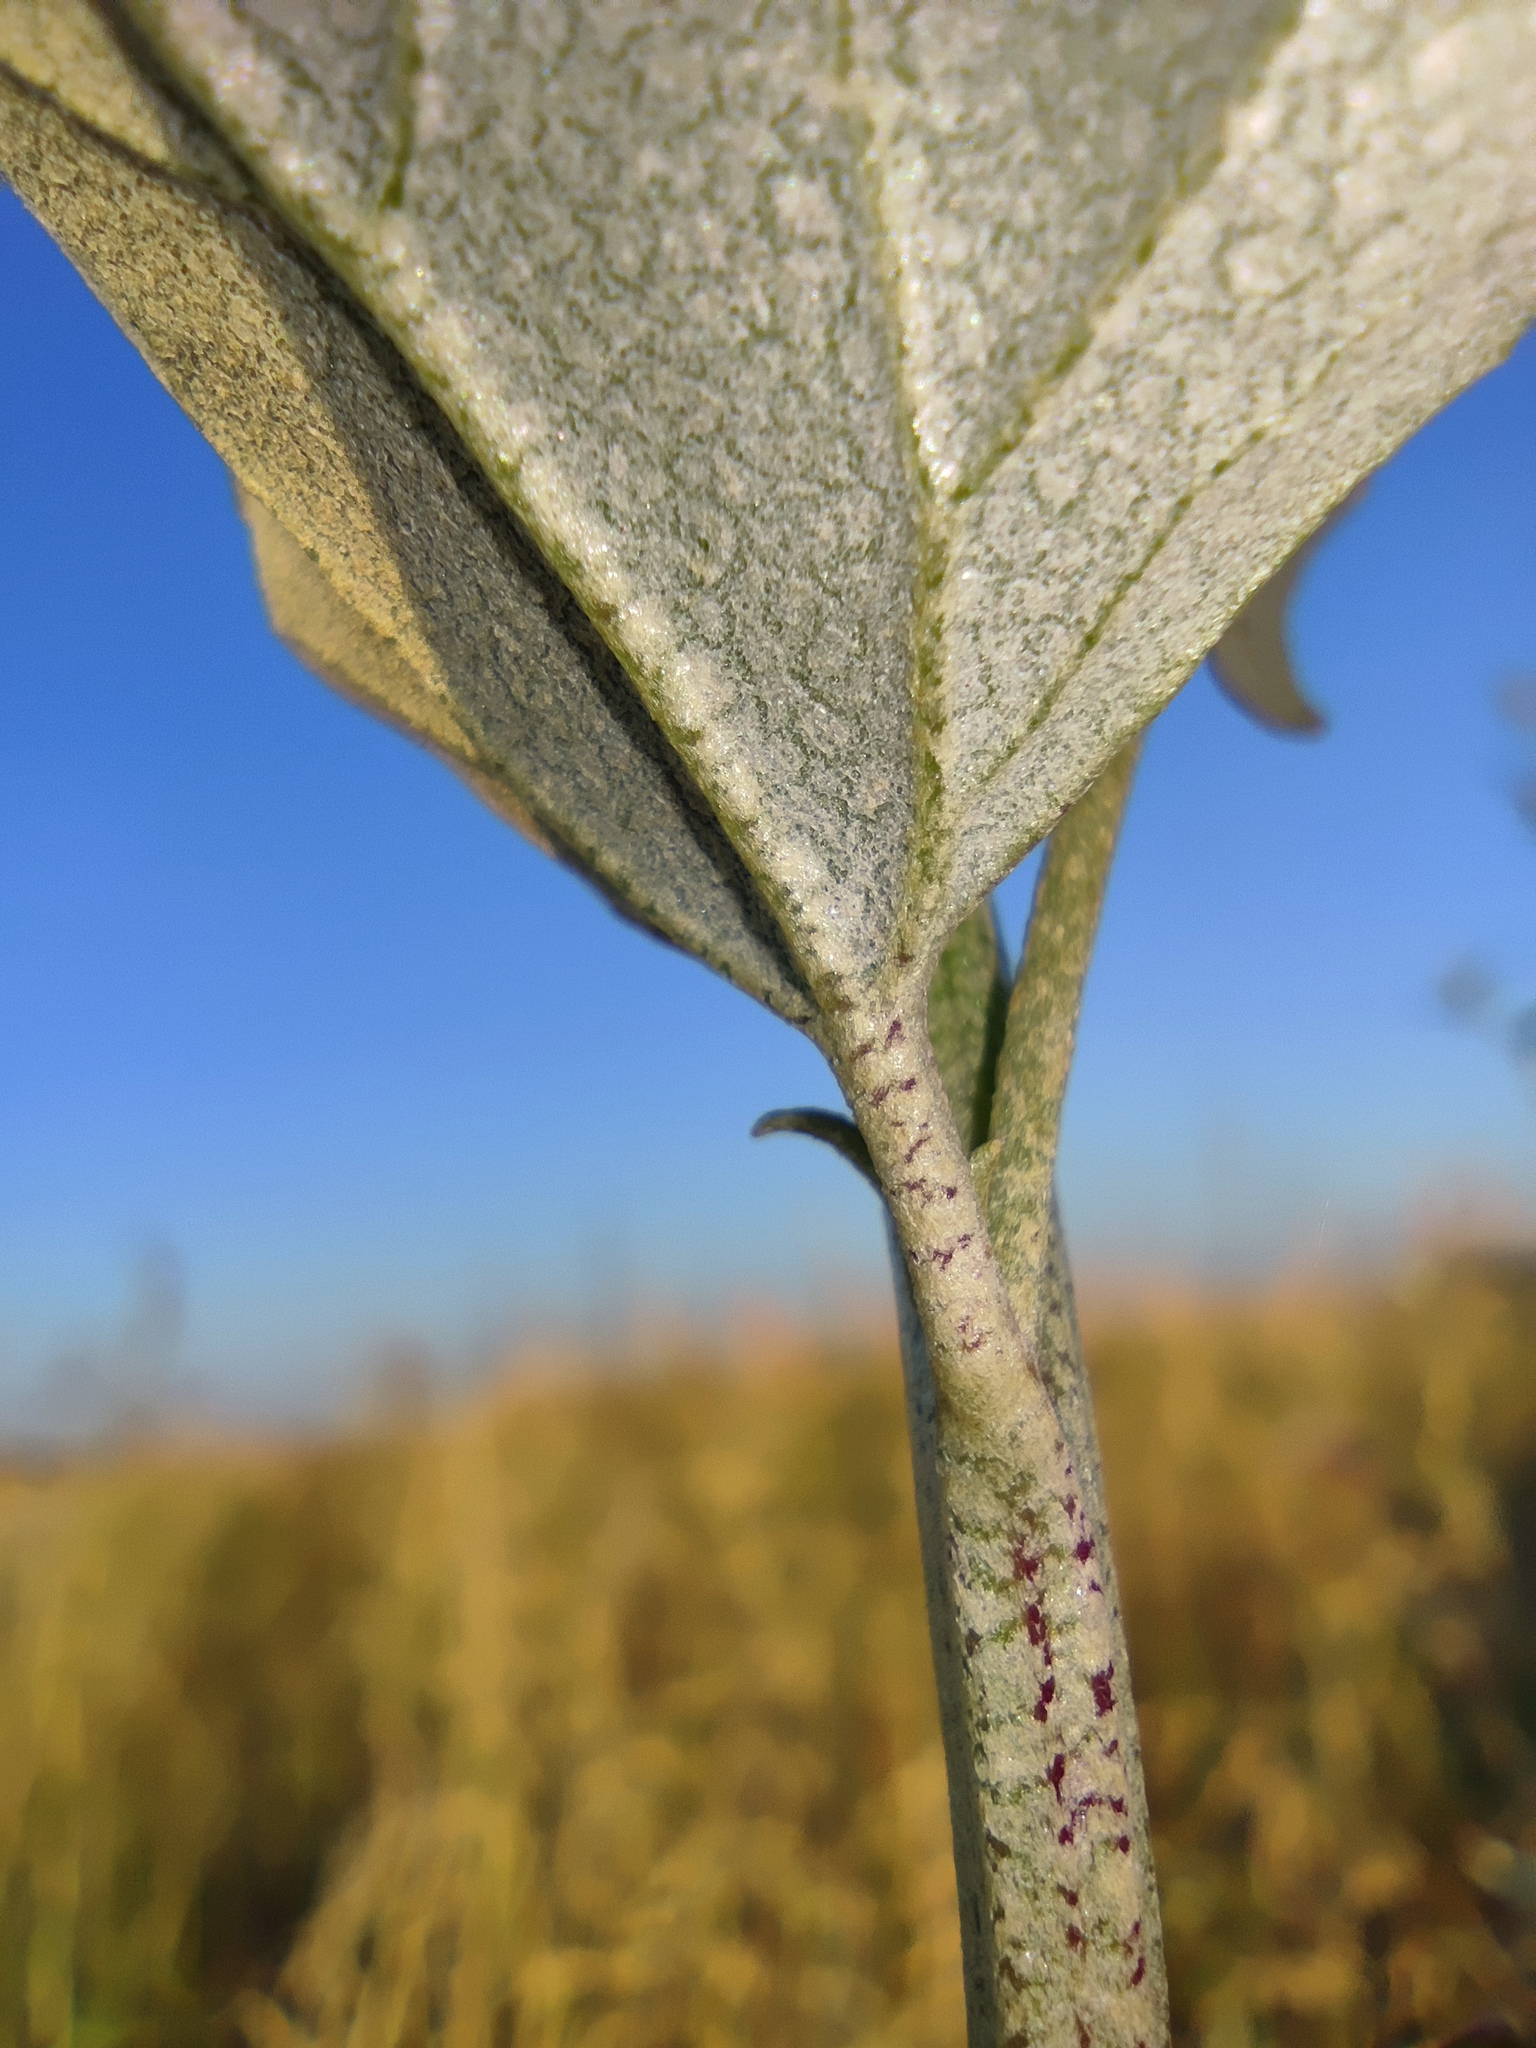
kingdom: Plantae
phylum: Tracheophyta
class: Magnoliopsida
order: Caryophyllales
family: Amaranthaceae
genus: Atriplex
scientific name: Atriplex sagittata
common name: Purple orache
